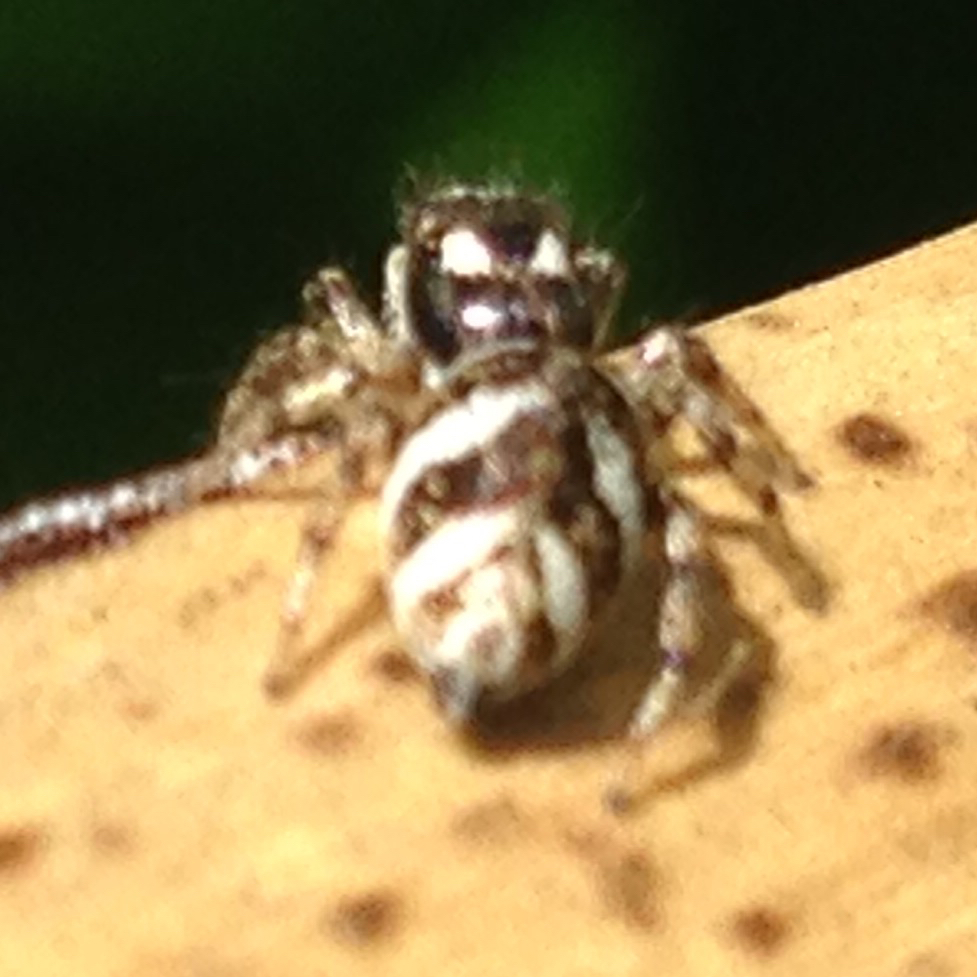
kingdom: Animalia
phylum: Arthropoda
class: Arachnida
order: Araneae
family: Salticidae
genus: Salticus
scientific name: Salticus scenicus
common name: Zebra jumper
